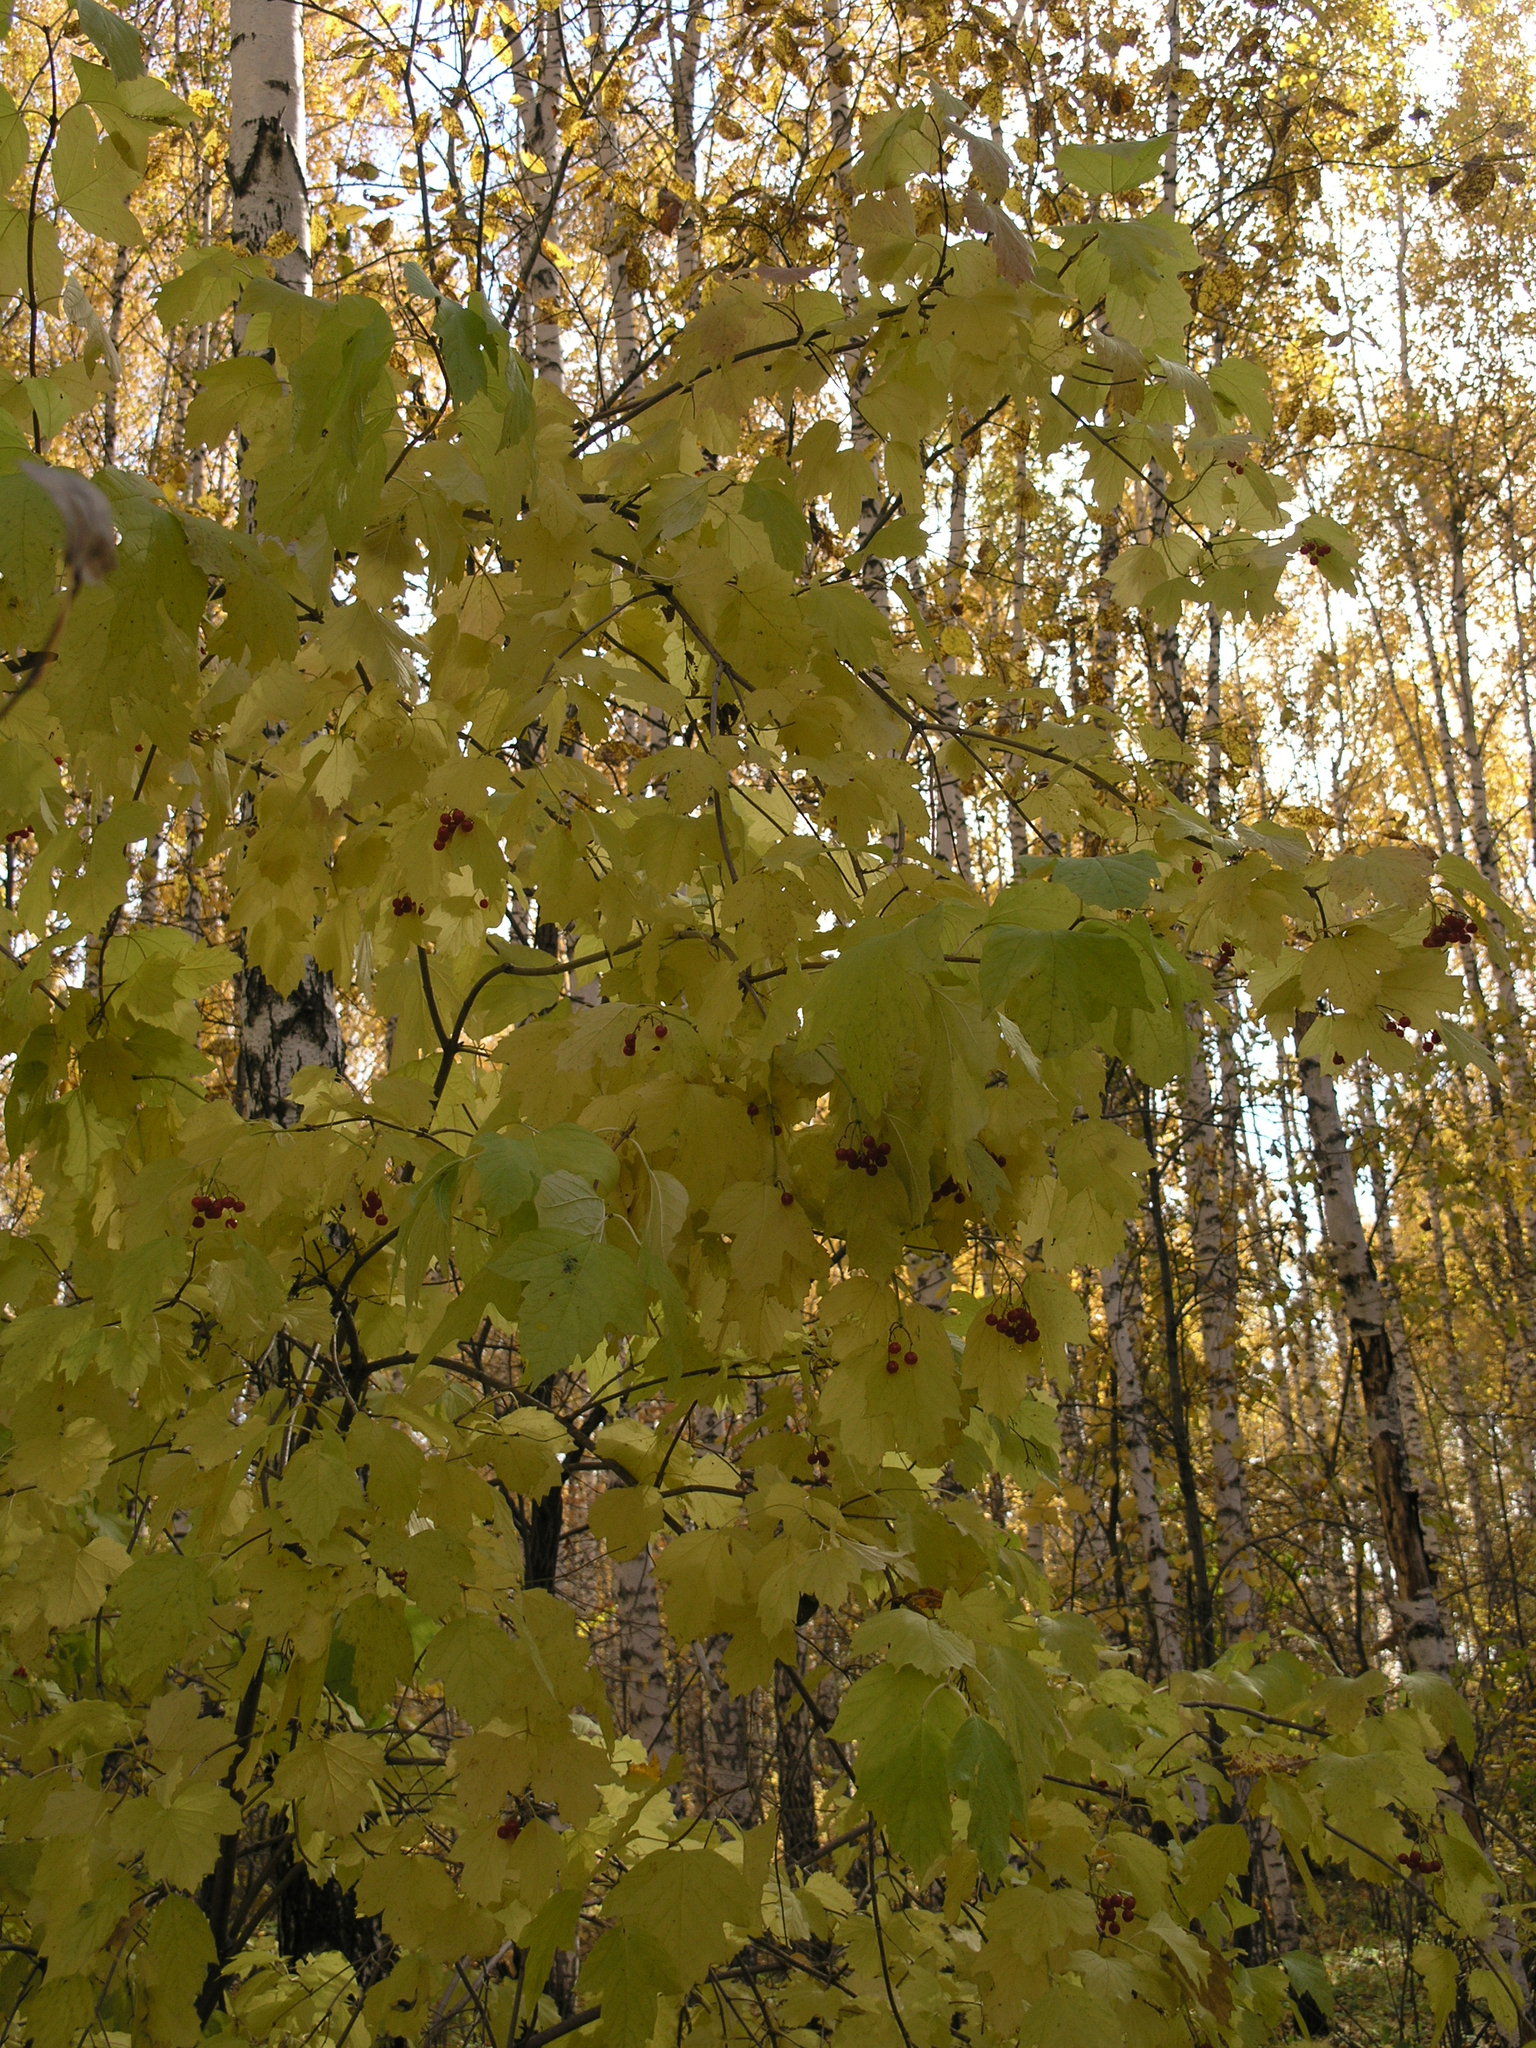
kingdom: Plantae
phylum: Tracheophyta
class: Magnoliopsida
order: Dipsacales
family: Viburnaceae
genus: Viburnum
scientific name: Viburnum opulus
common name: Guelder-rose
